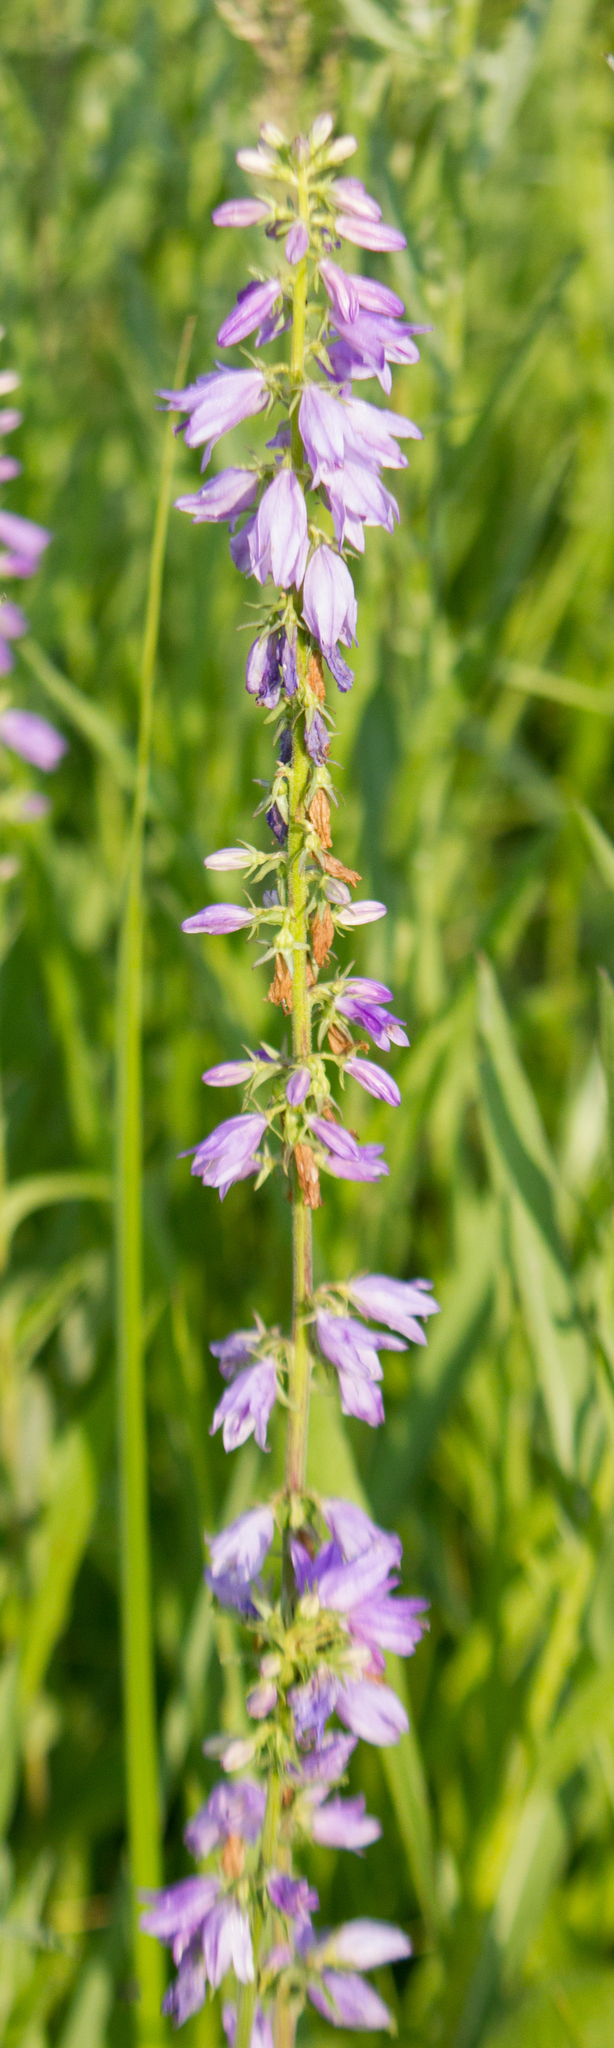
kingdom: Plantae
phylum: Tracheophyta
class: Magnoliopsida
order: Asterales
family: Campanulaceae
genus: Campanula
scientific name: Campanula bononiensis
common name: Pale bellflower
